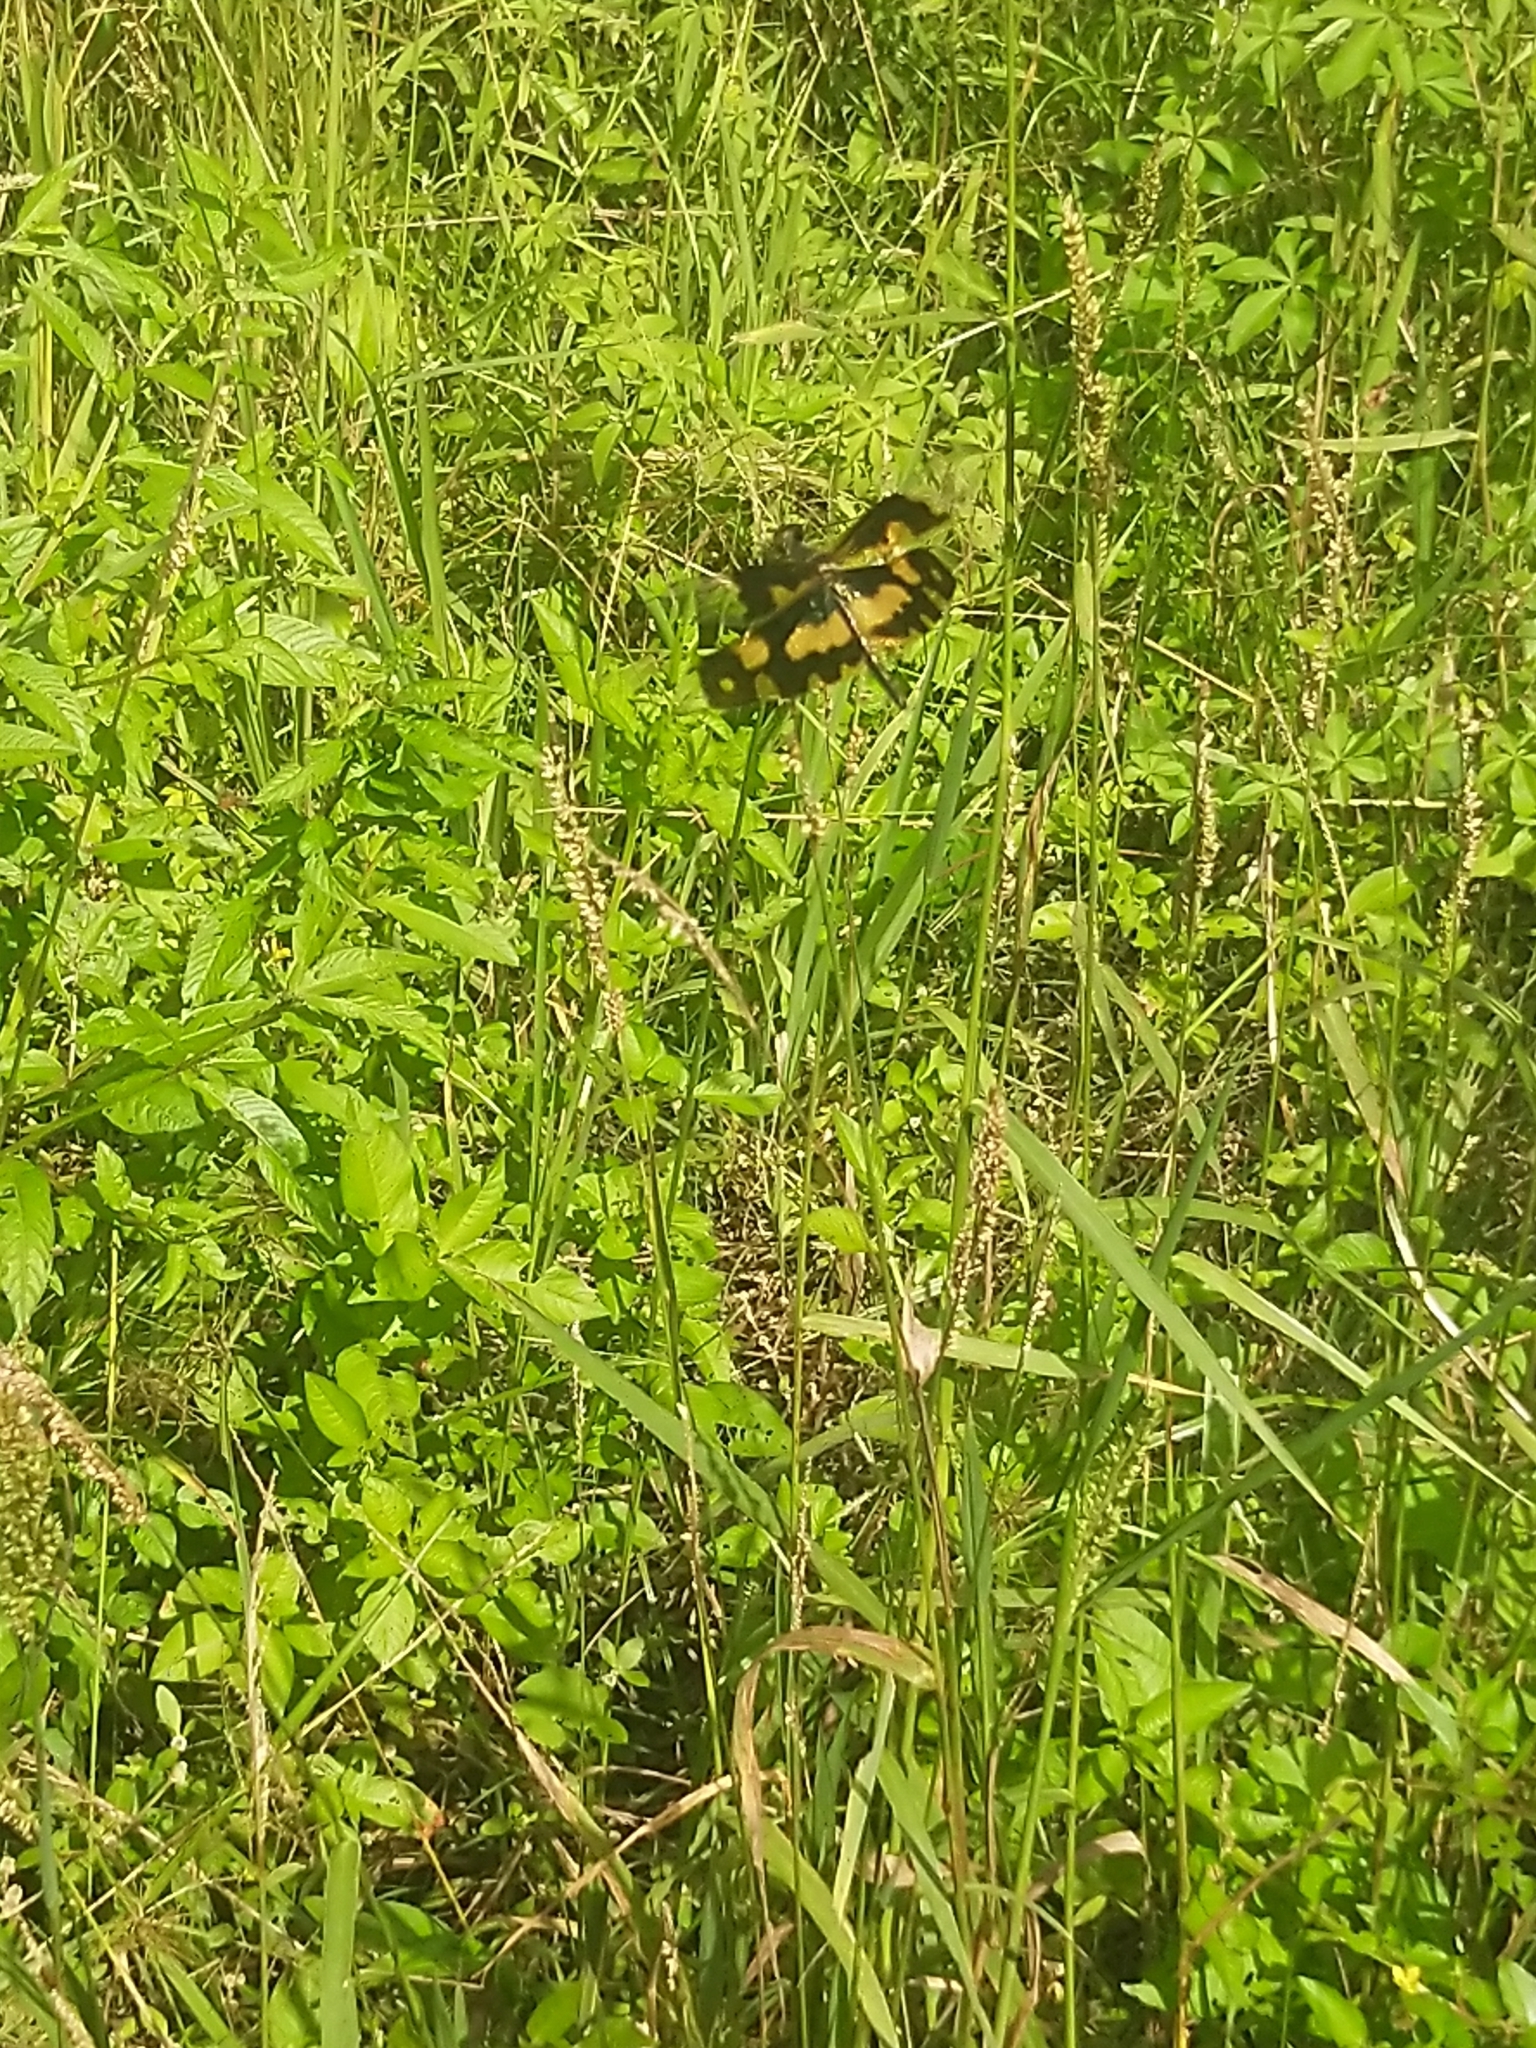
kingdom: Animalia
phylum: Arthropoda
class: Insecta
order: Odonata
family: Libellulidae
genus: Rhyothemis
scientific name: Rhyothemis variegata
